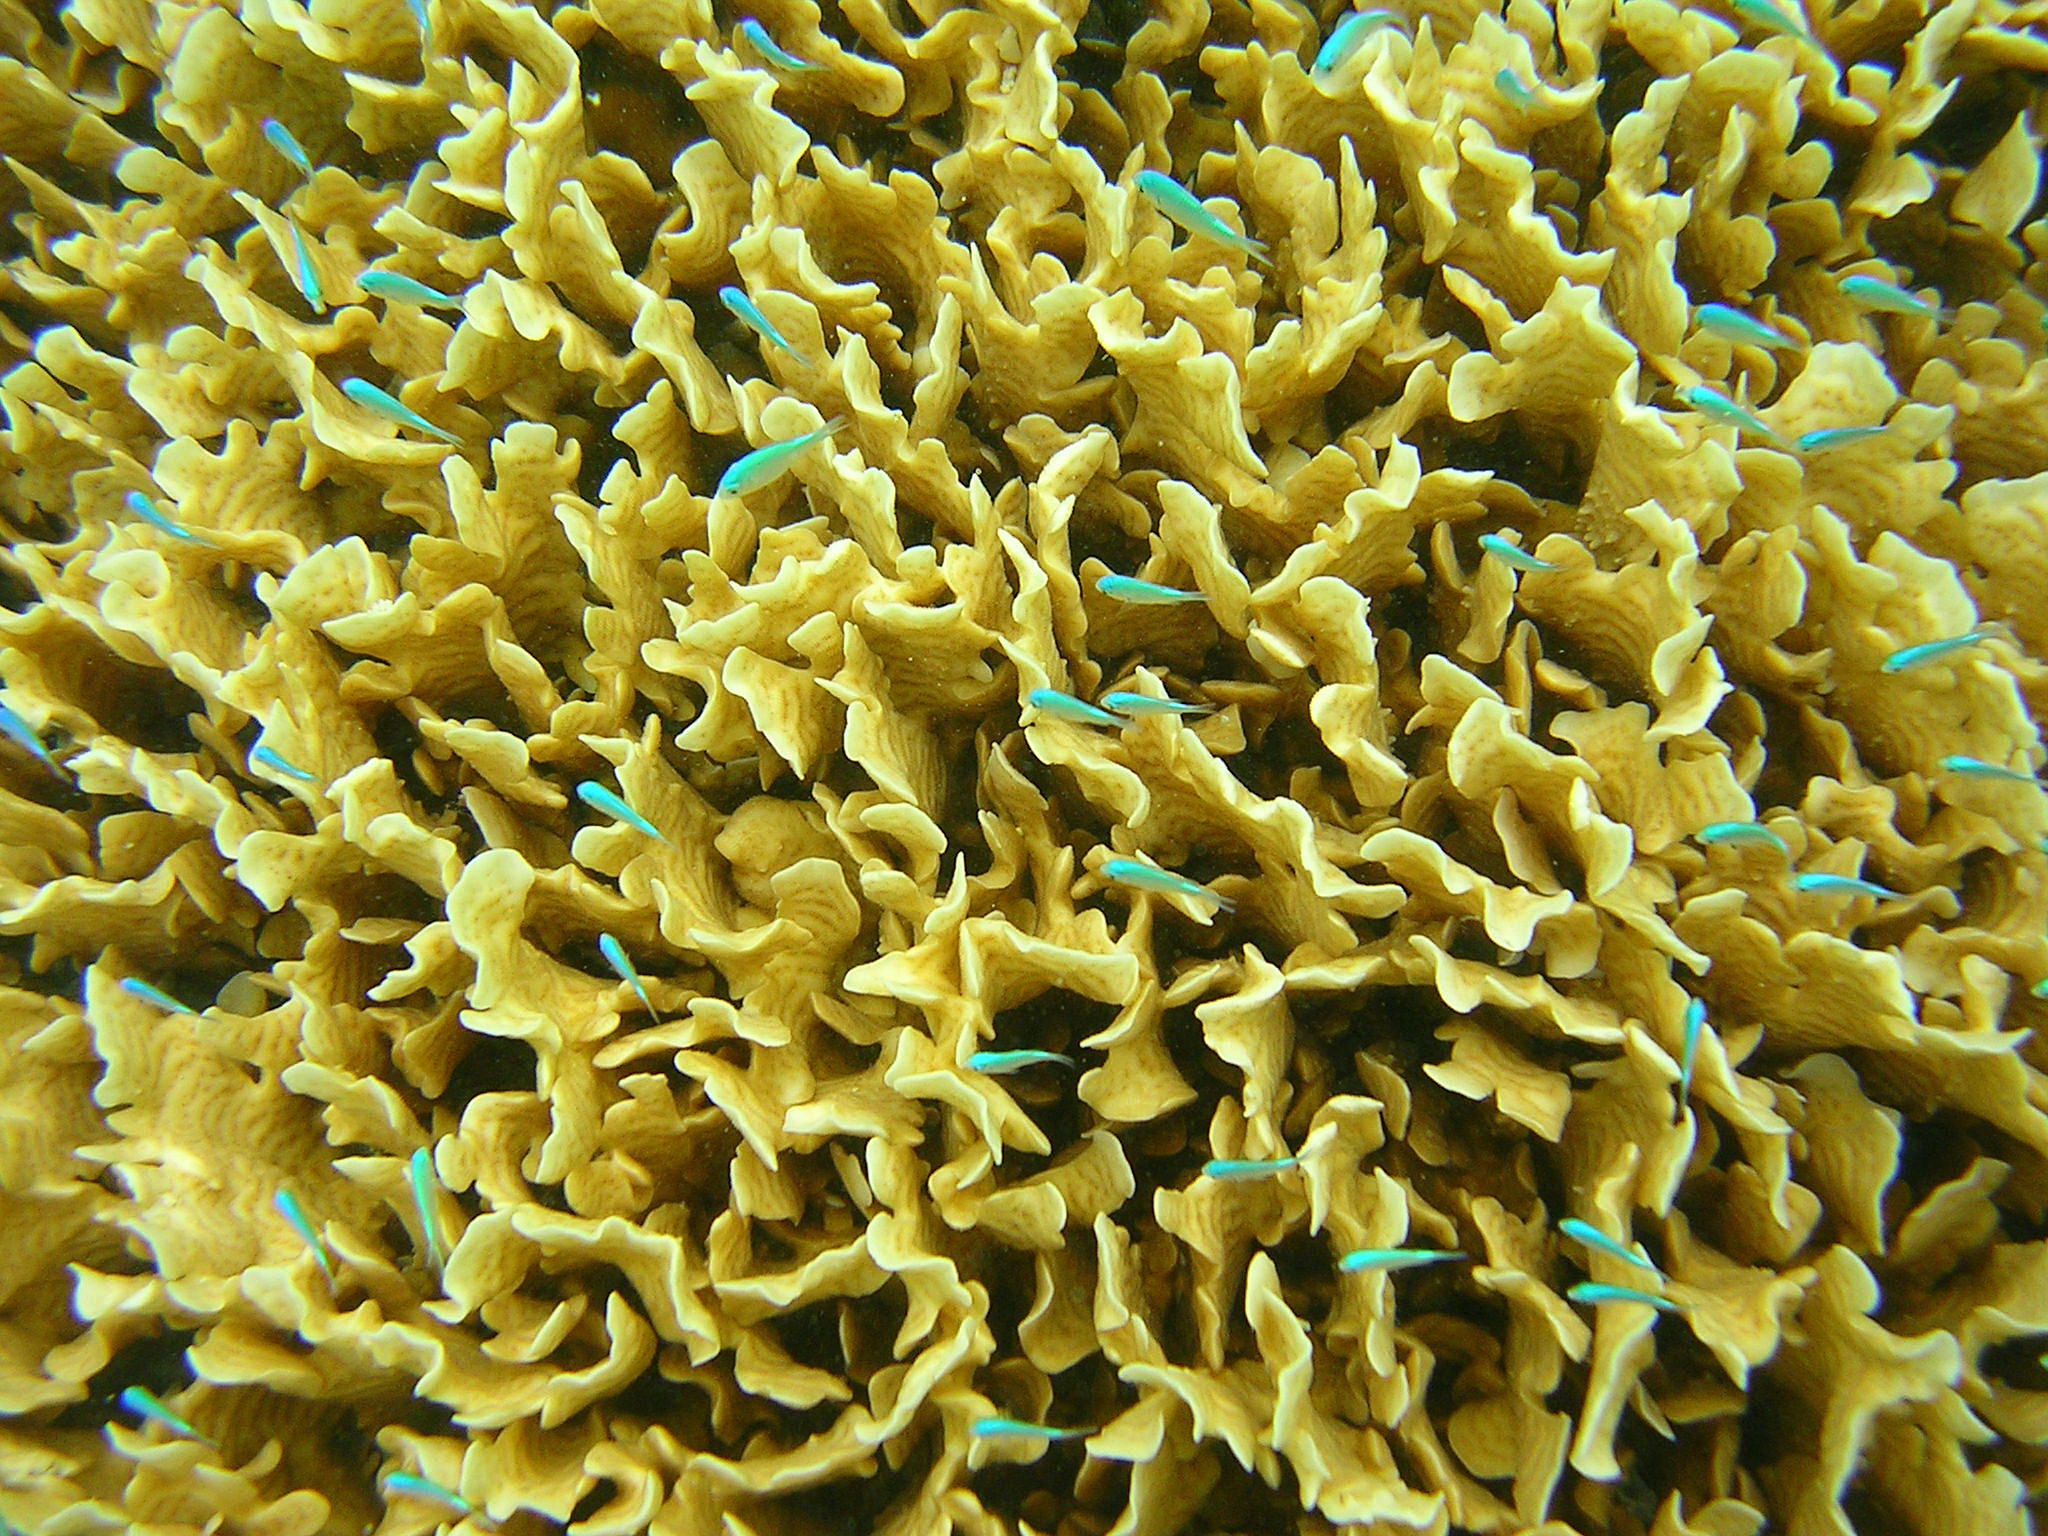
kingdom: Animalia
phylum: Chordata
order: Perciformes
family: Pomacentridae
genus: Chromis
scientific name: Chromis viridis
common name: Blue-green chromis
